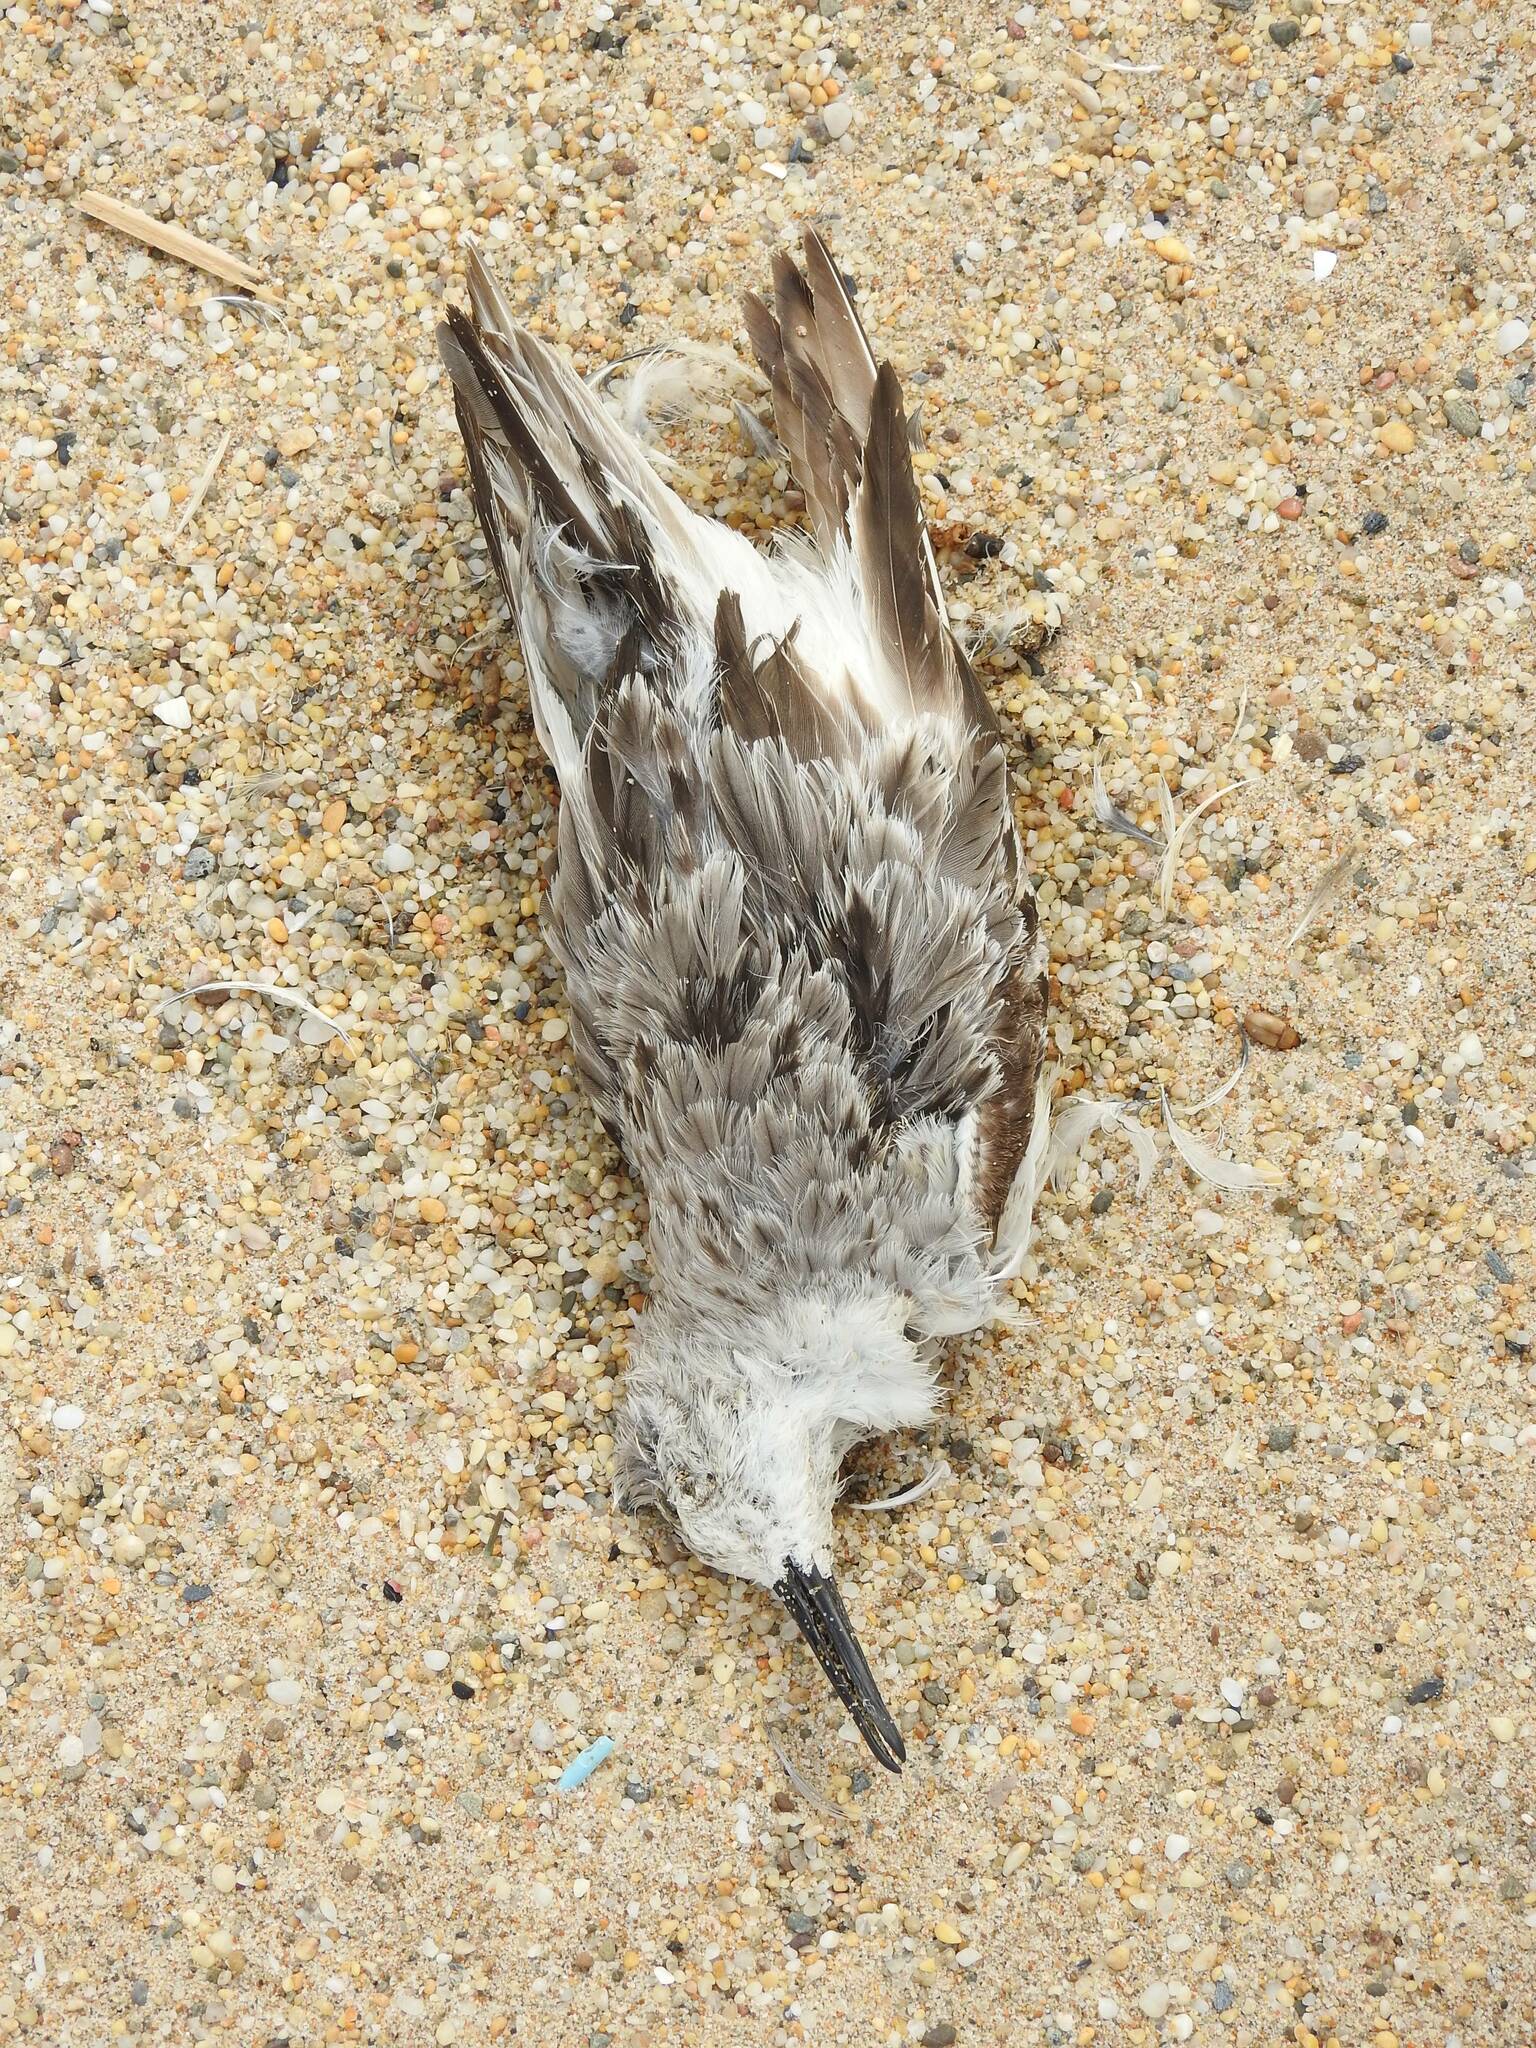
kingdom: Animalia
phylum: Chordata
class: Aves
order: Charadriiformes
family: Scolopacidae
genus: Calidris
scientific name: Calidris alba
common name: Sanderling
